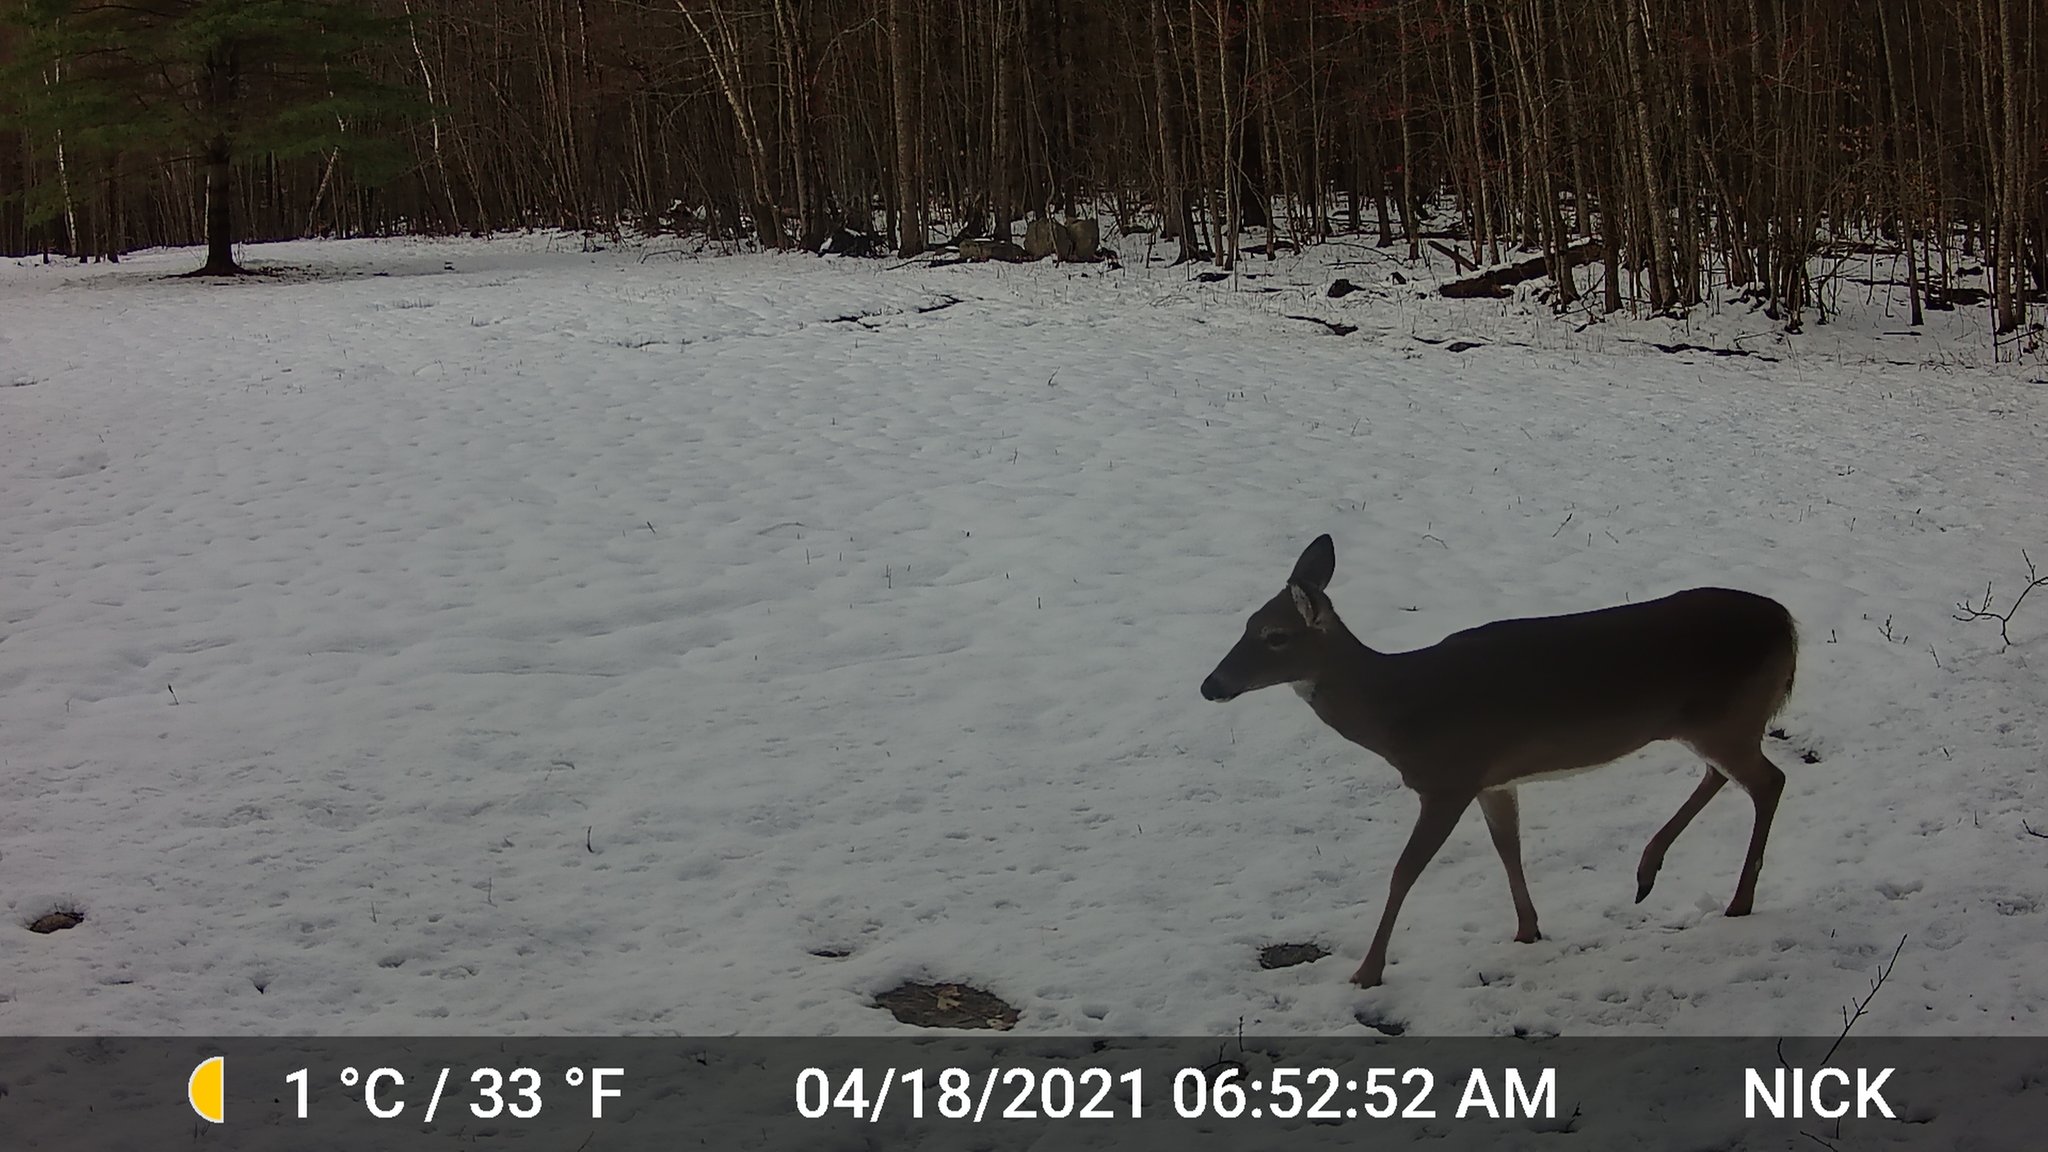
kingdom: Animalia
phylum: Chordata
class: Mammalia
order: Artiodactyla
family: Cervidae
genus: Odocoileus
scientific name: Odocoileus virginianus
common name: White-tailed deer
